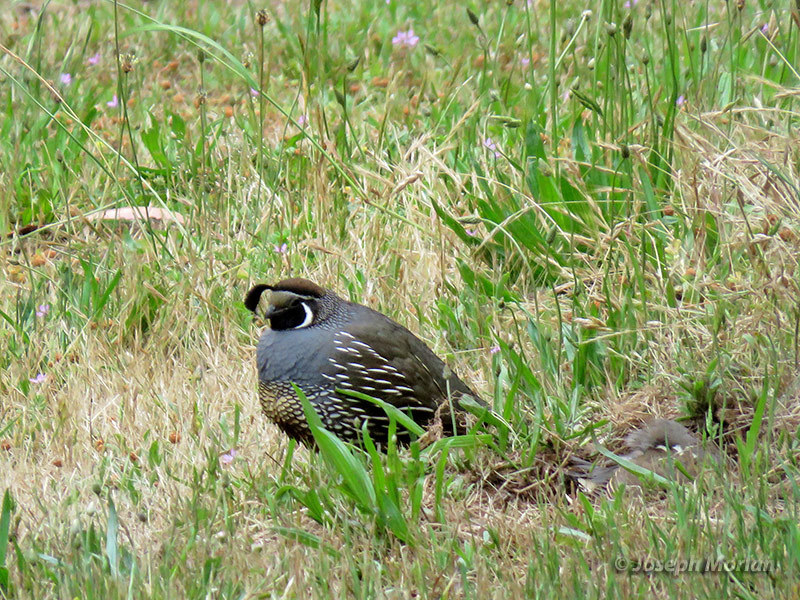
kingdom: Animalia
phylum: Chordata
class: Aves
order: Galliformes
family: Odontophoridae
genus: Callipepla
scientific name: Callipepla californica
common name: California quail
